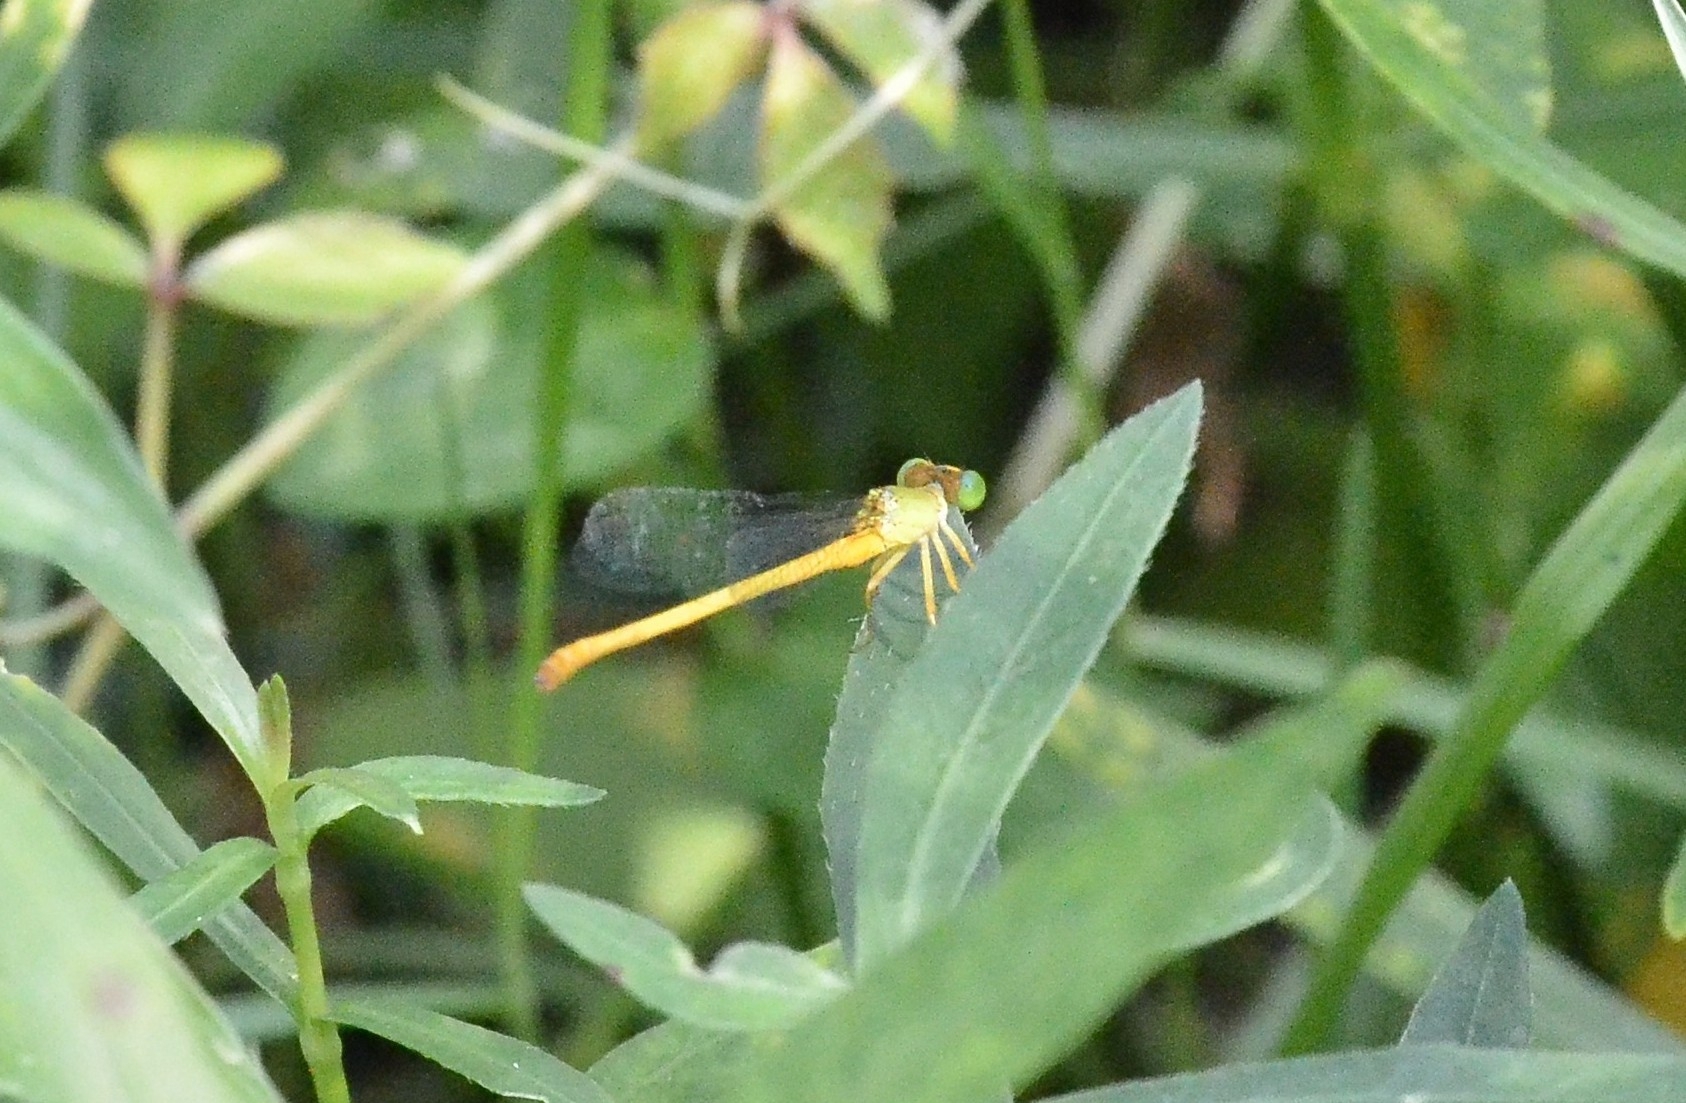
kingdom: Animalia
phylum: Arthropoda
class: Insecta
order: Odonata
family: Coenagrionidae
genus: Ceriagrion
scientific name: Ceriagrion coromandelianum
